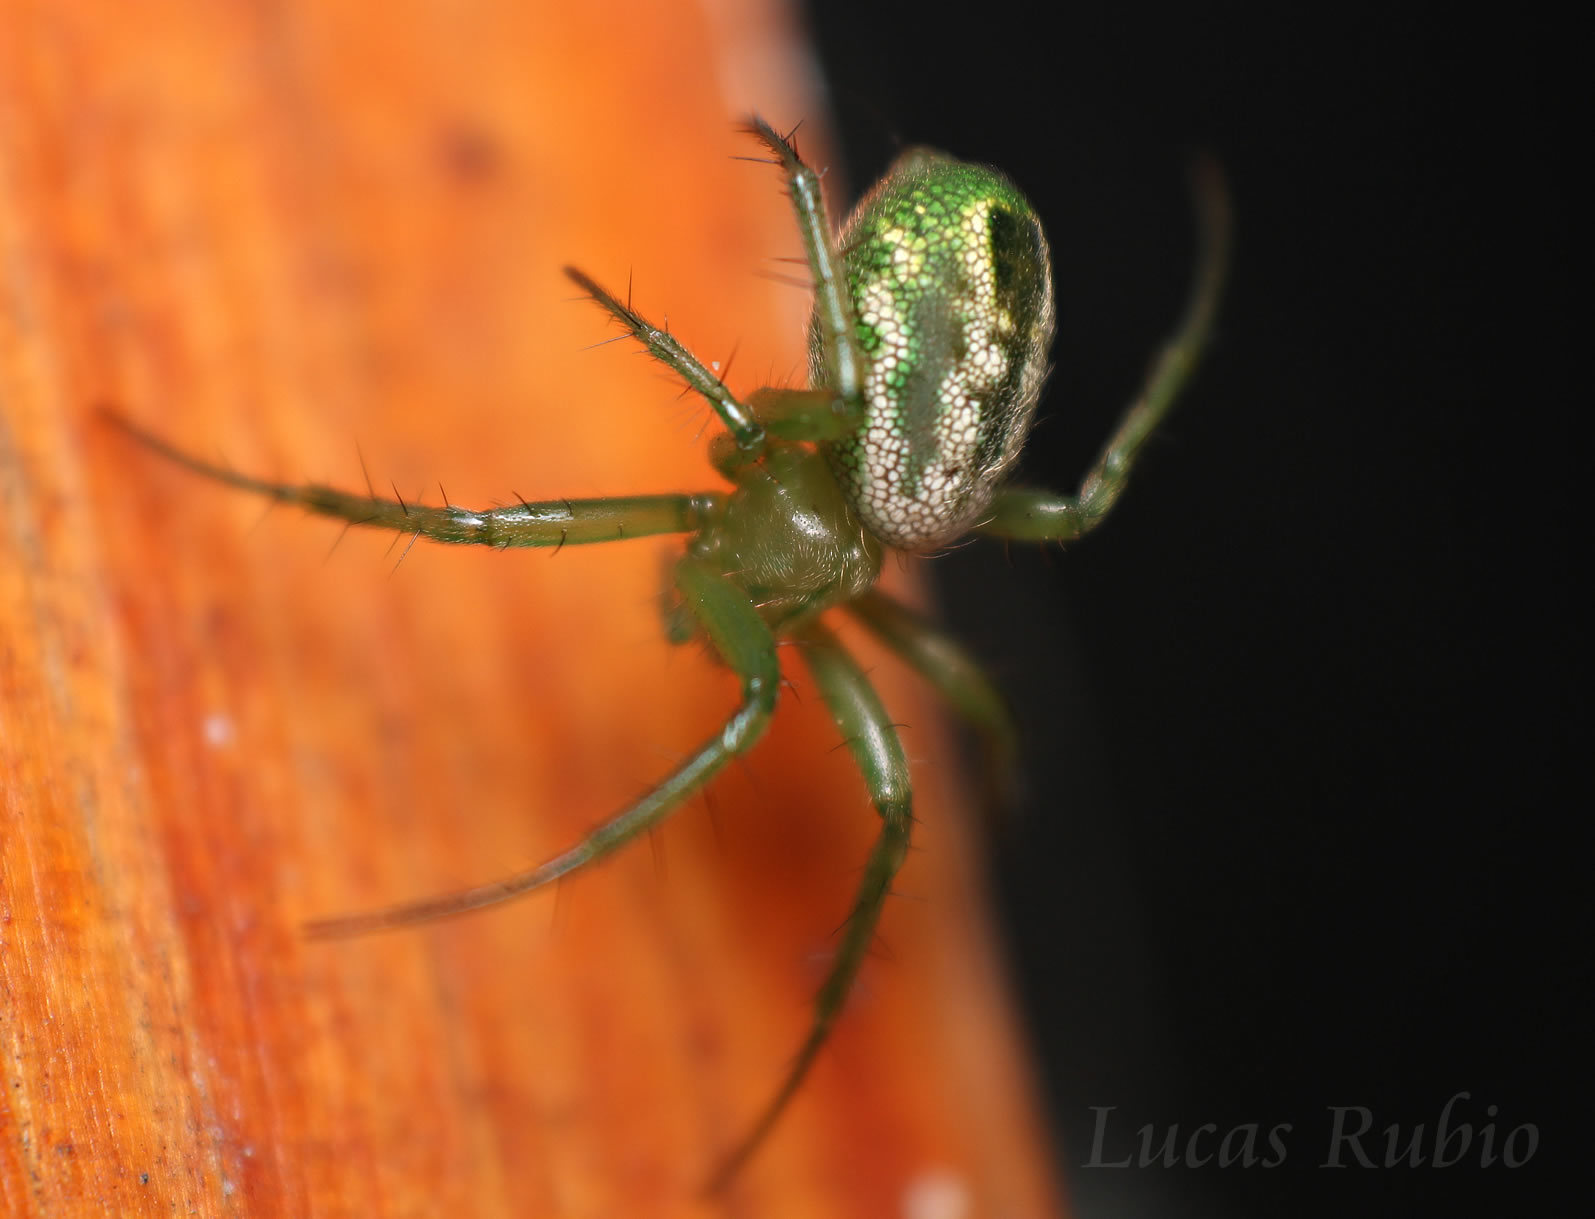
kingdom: Animalia
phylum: Arthropoda
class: Arachnida
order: Araneae
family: Araneidae
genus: Mangora
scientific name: Mangora lactea
